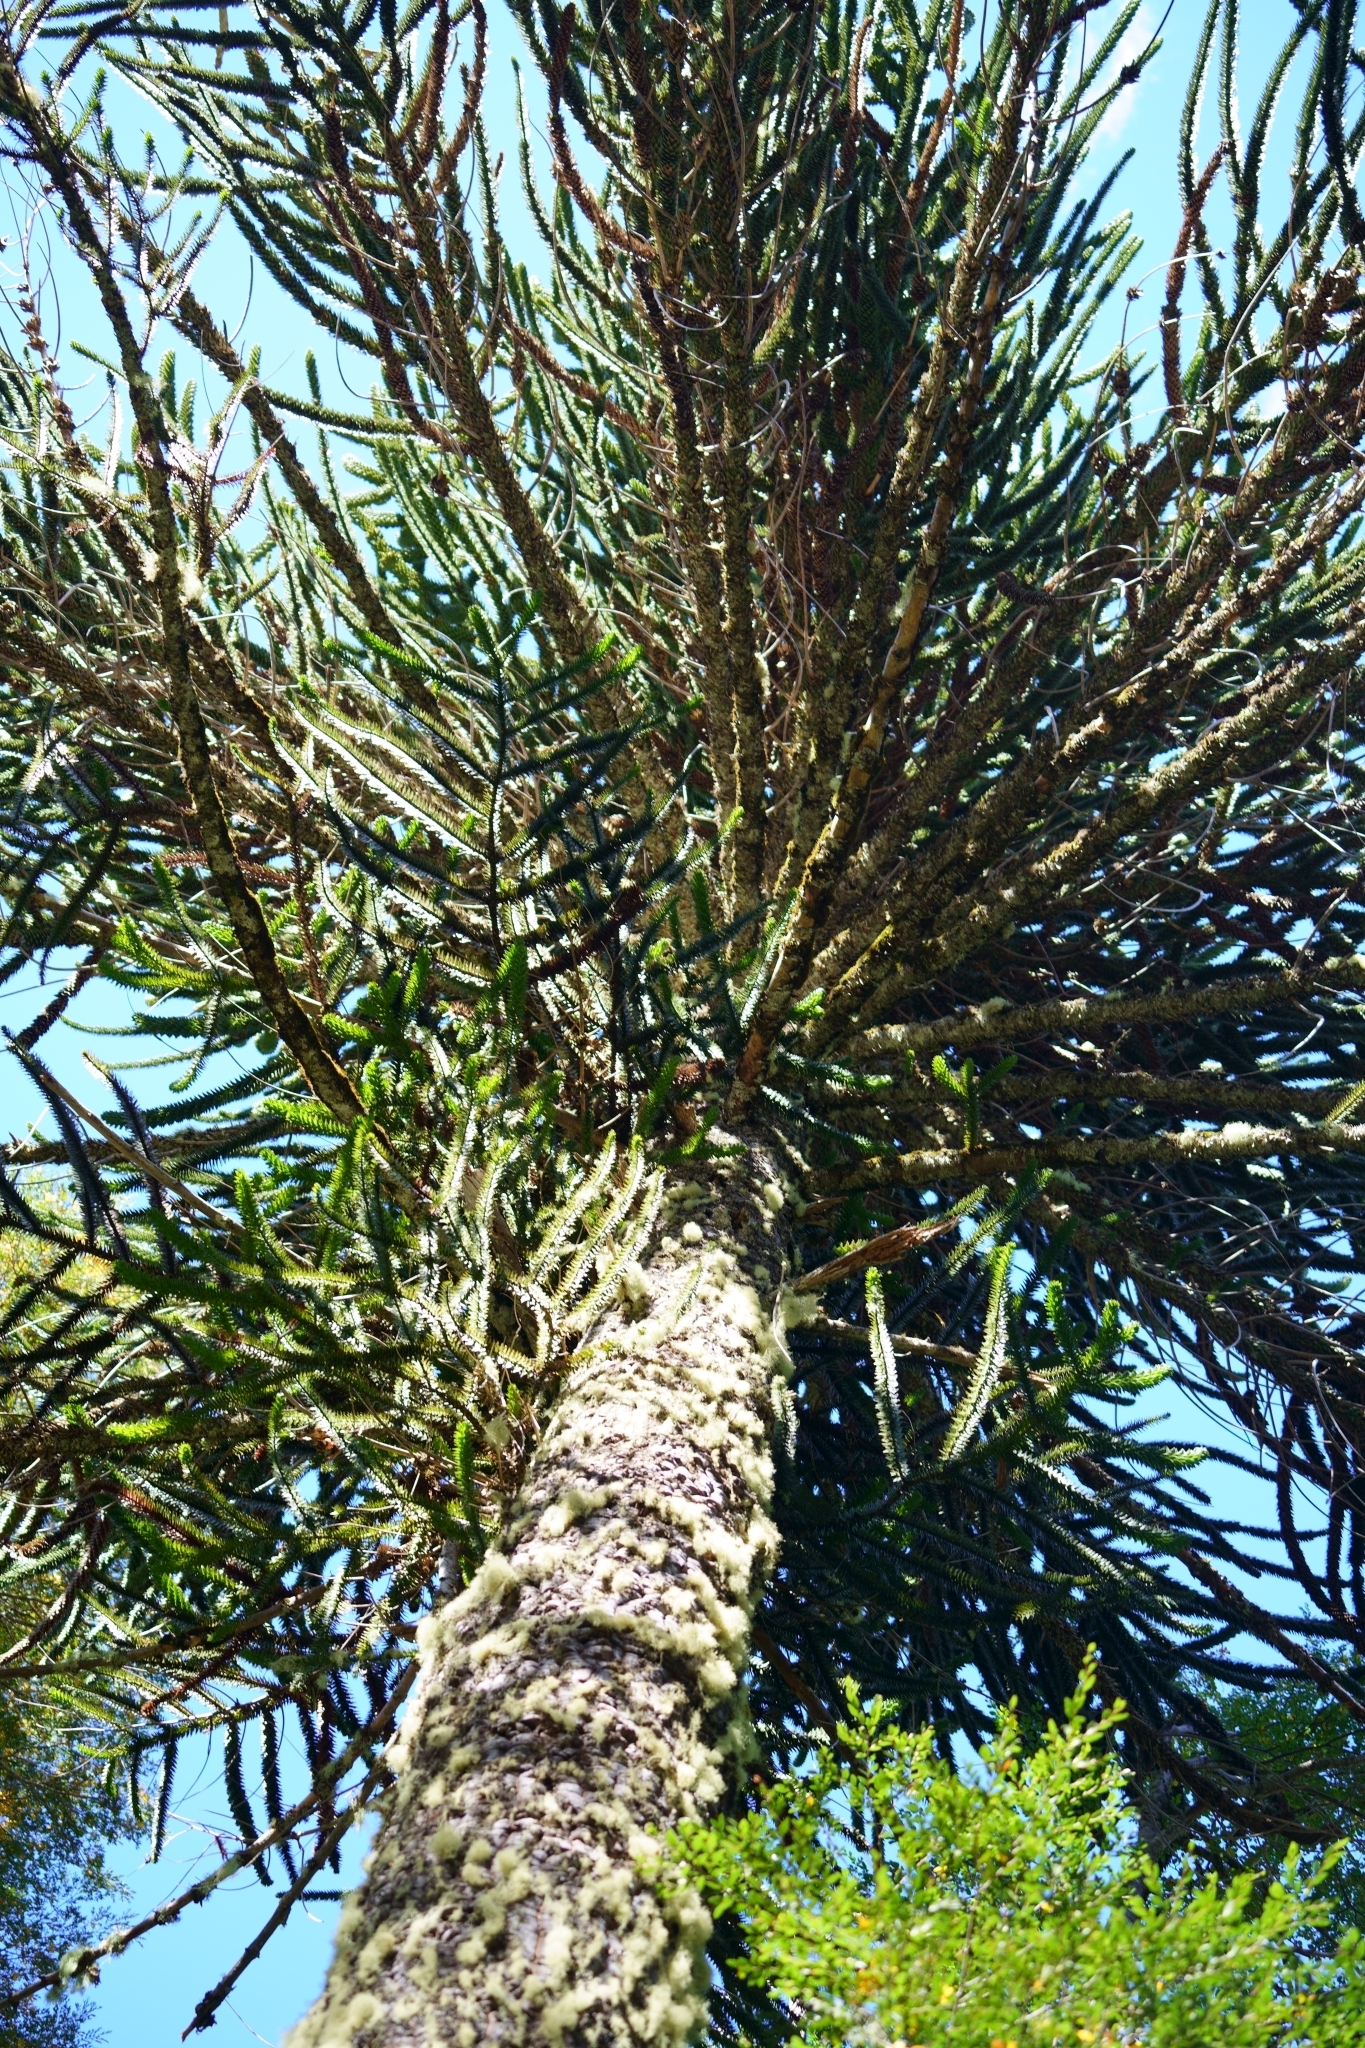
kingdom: Plantae
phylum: Tracheophyta
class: Pinopsida
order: Pinales
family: Araucariaceae
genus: Araucaria
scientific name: Araucaria araucana
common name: Monkey-puzzle
